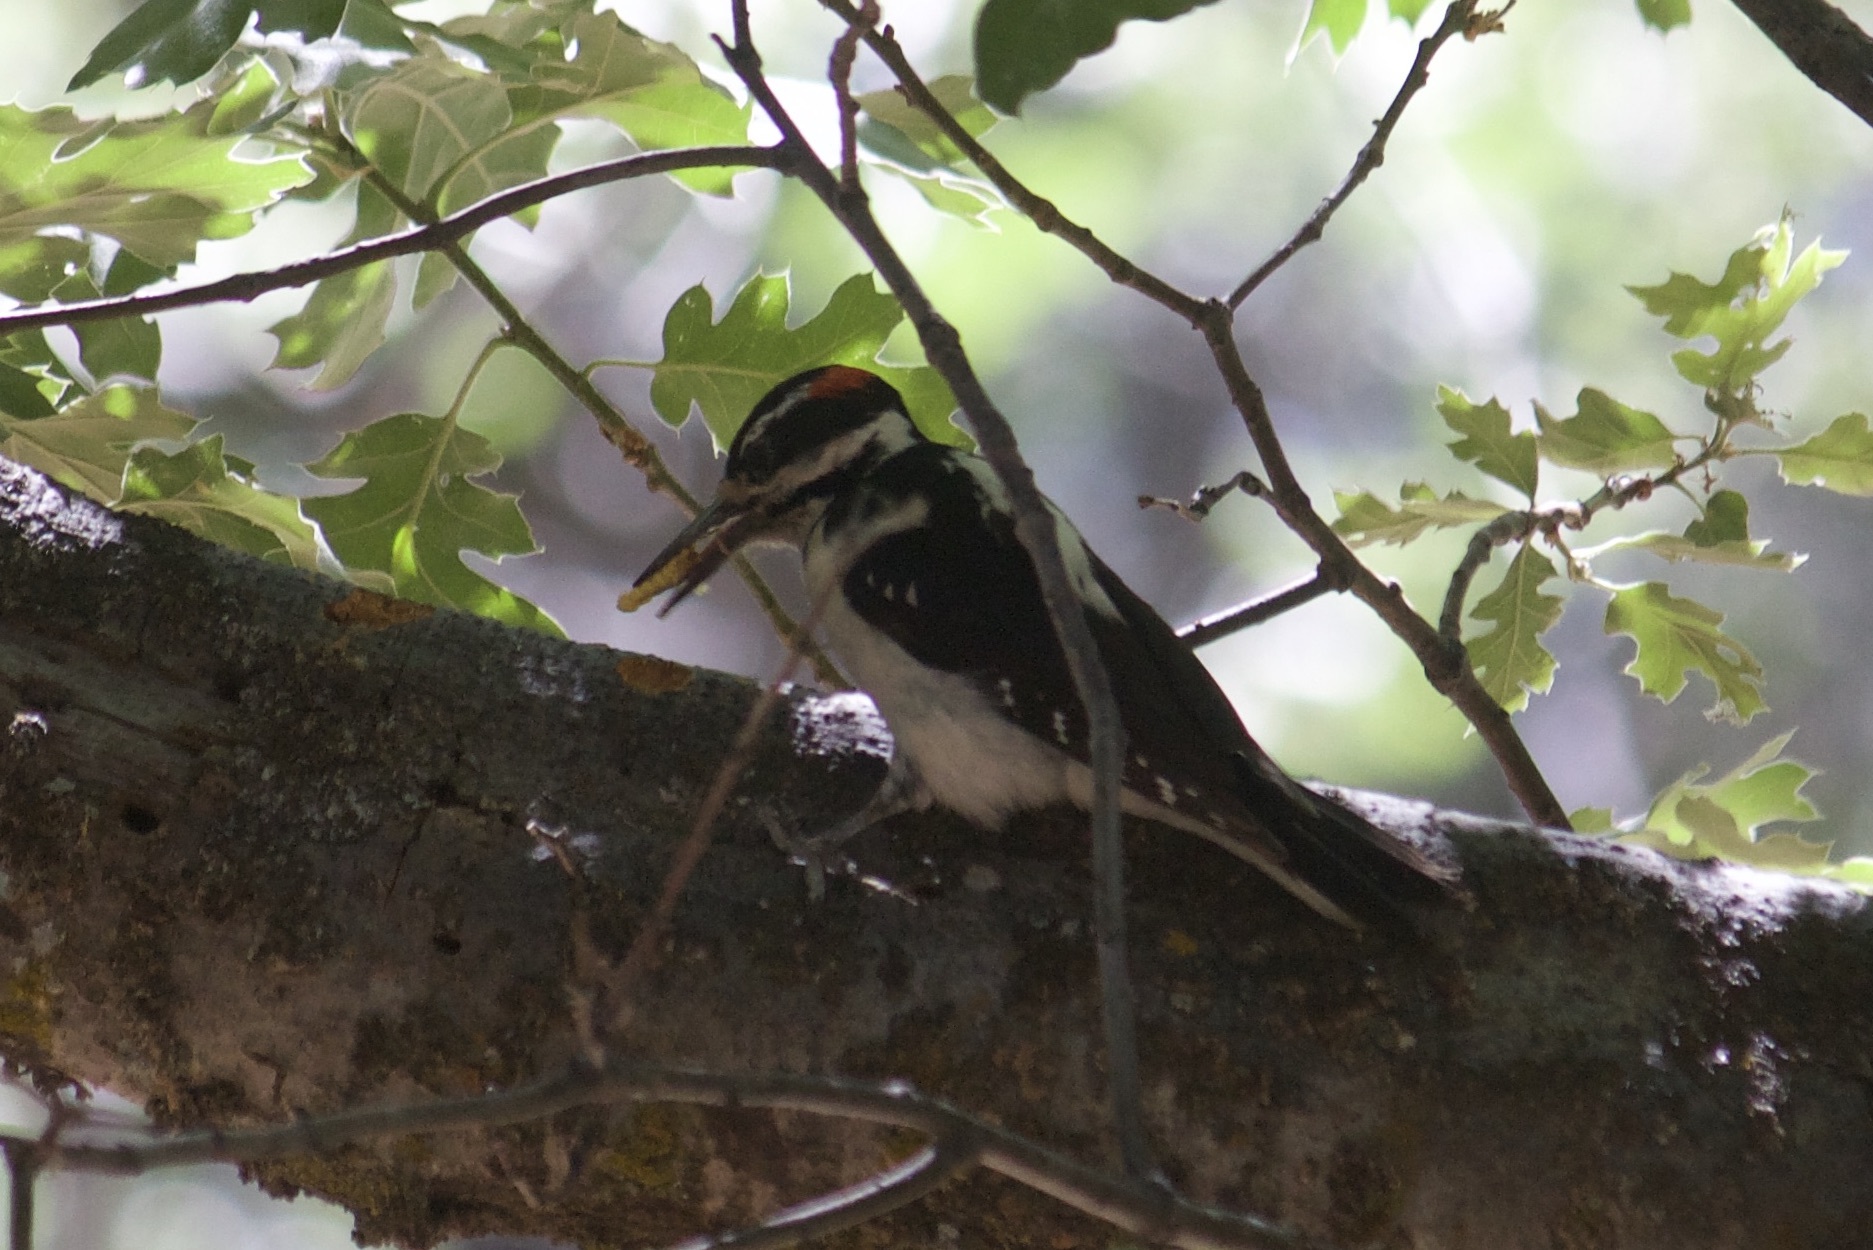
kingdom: Animalia
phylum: Chordata
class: Aves
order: Piciformes
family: Picidae
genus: Leuconotopicus
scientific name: Leuconotopicus villosus
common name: Hairy woodpecker
